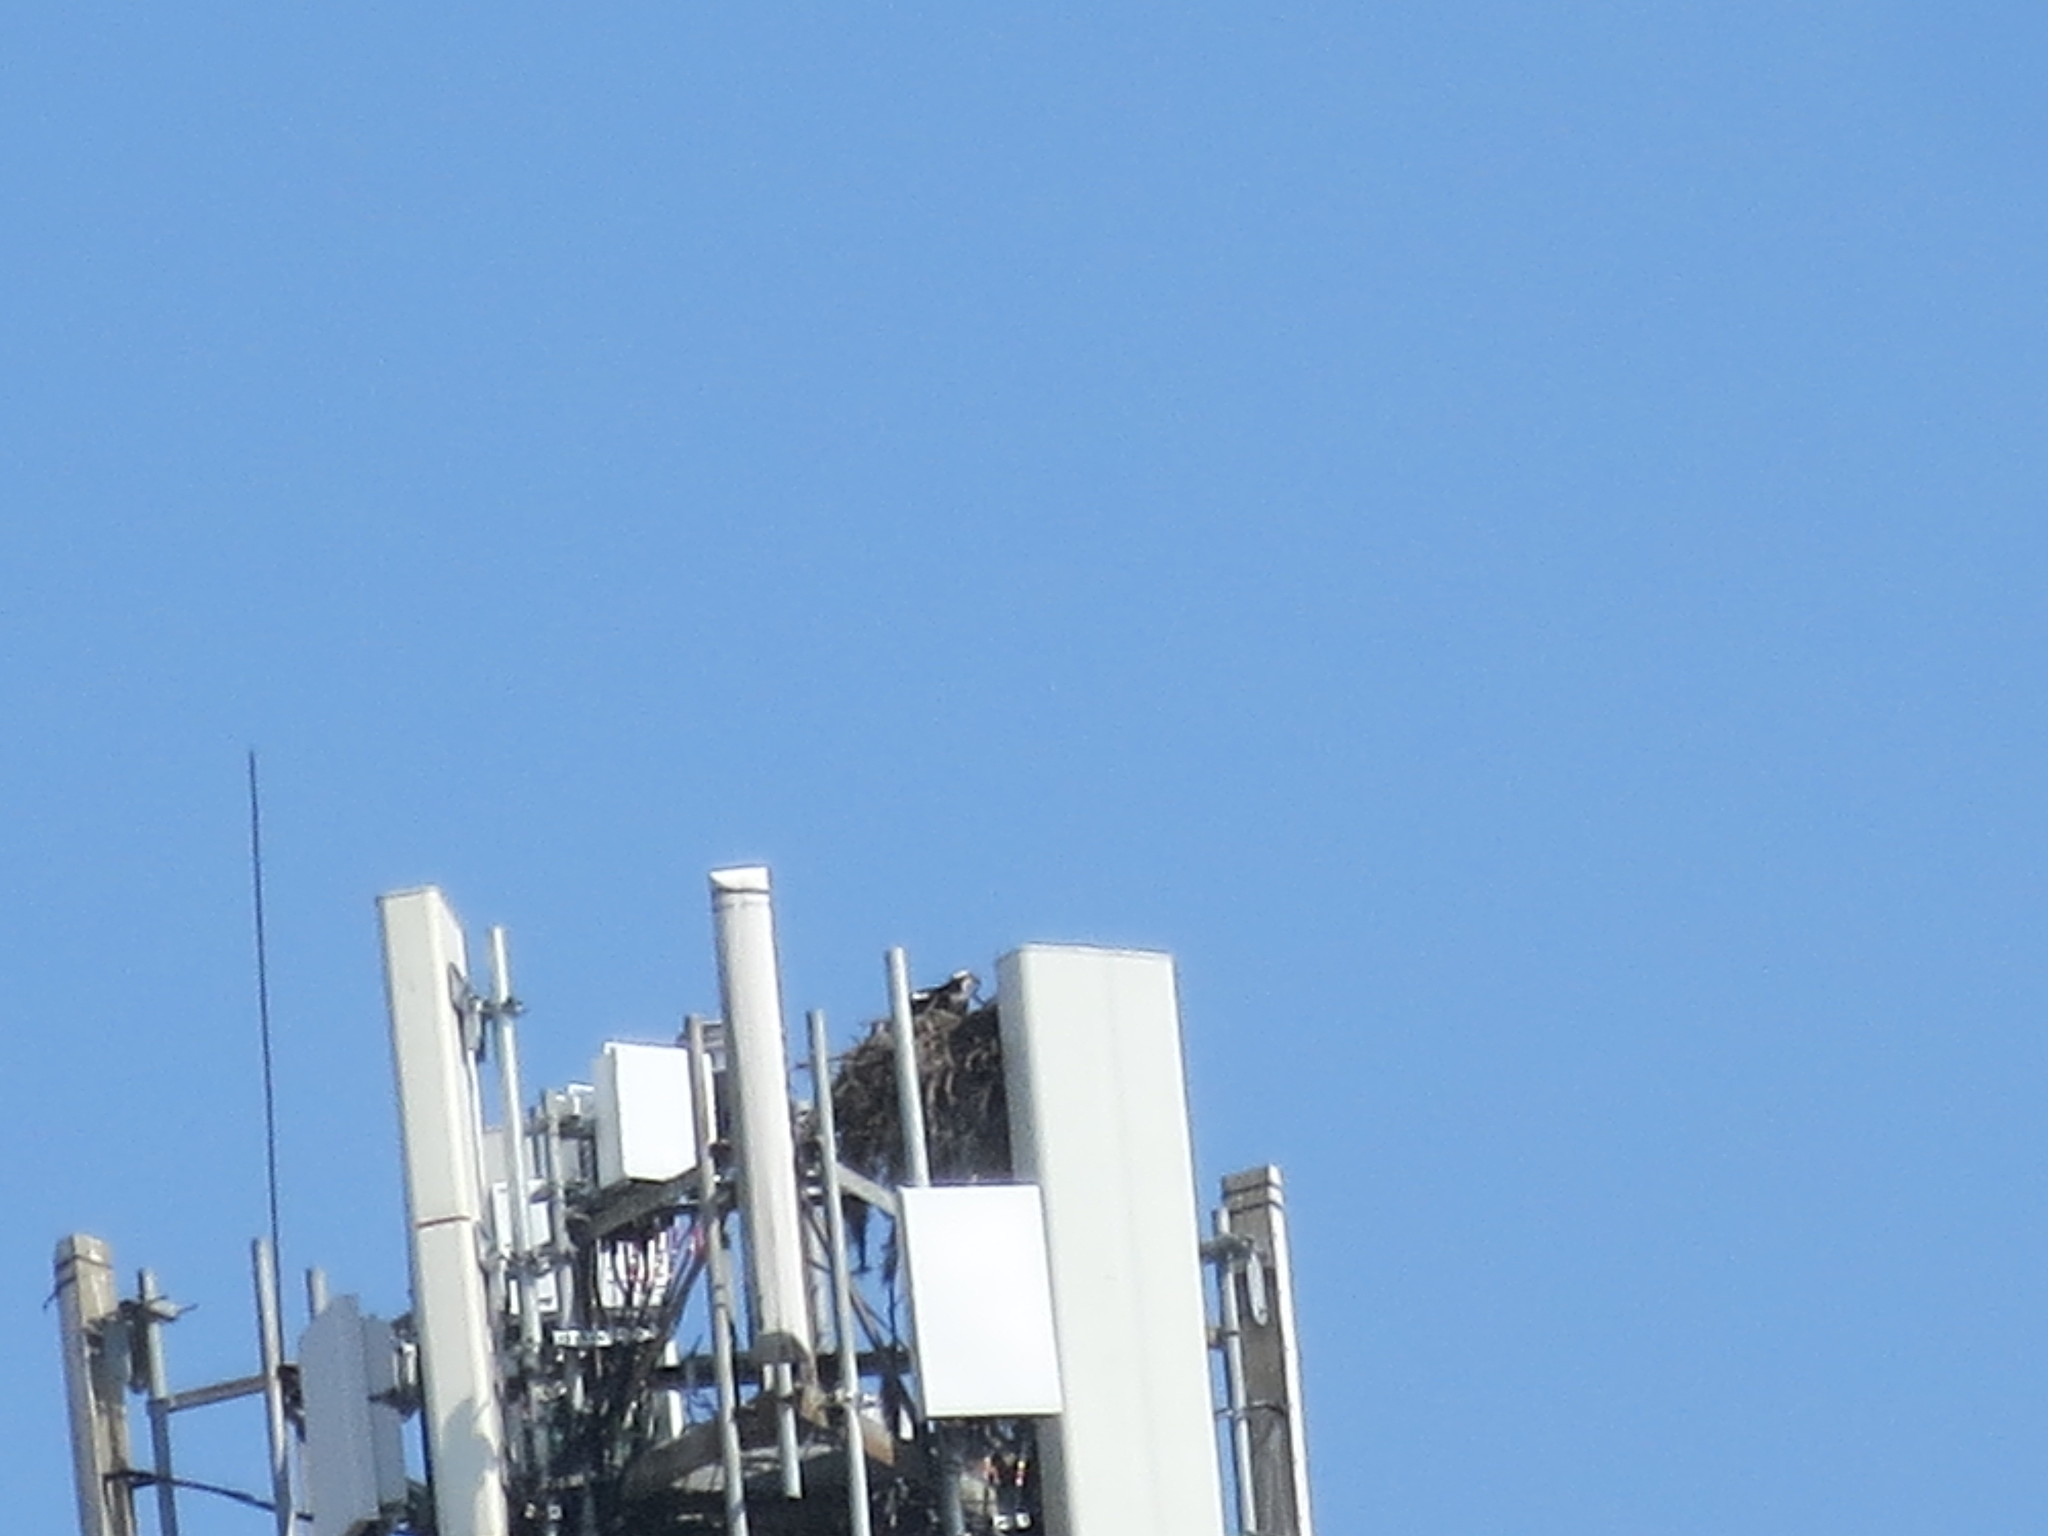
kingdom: Animalia
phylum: Chordata
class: Aves
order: Accipitriformes
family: Pandionidae
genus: Pandion
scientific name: Pandion haliaetus
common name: Osprey
